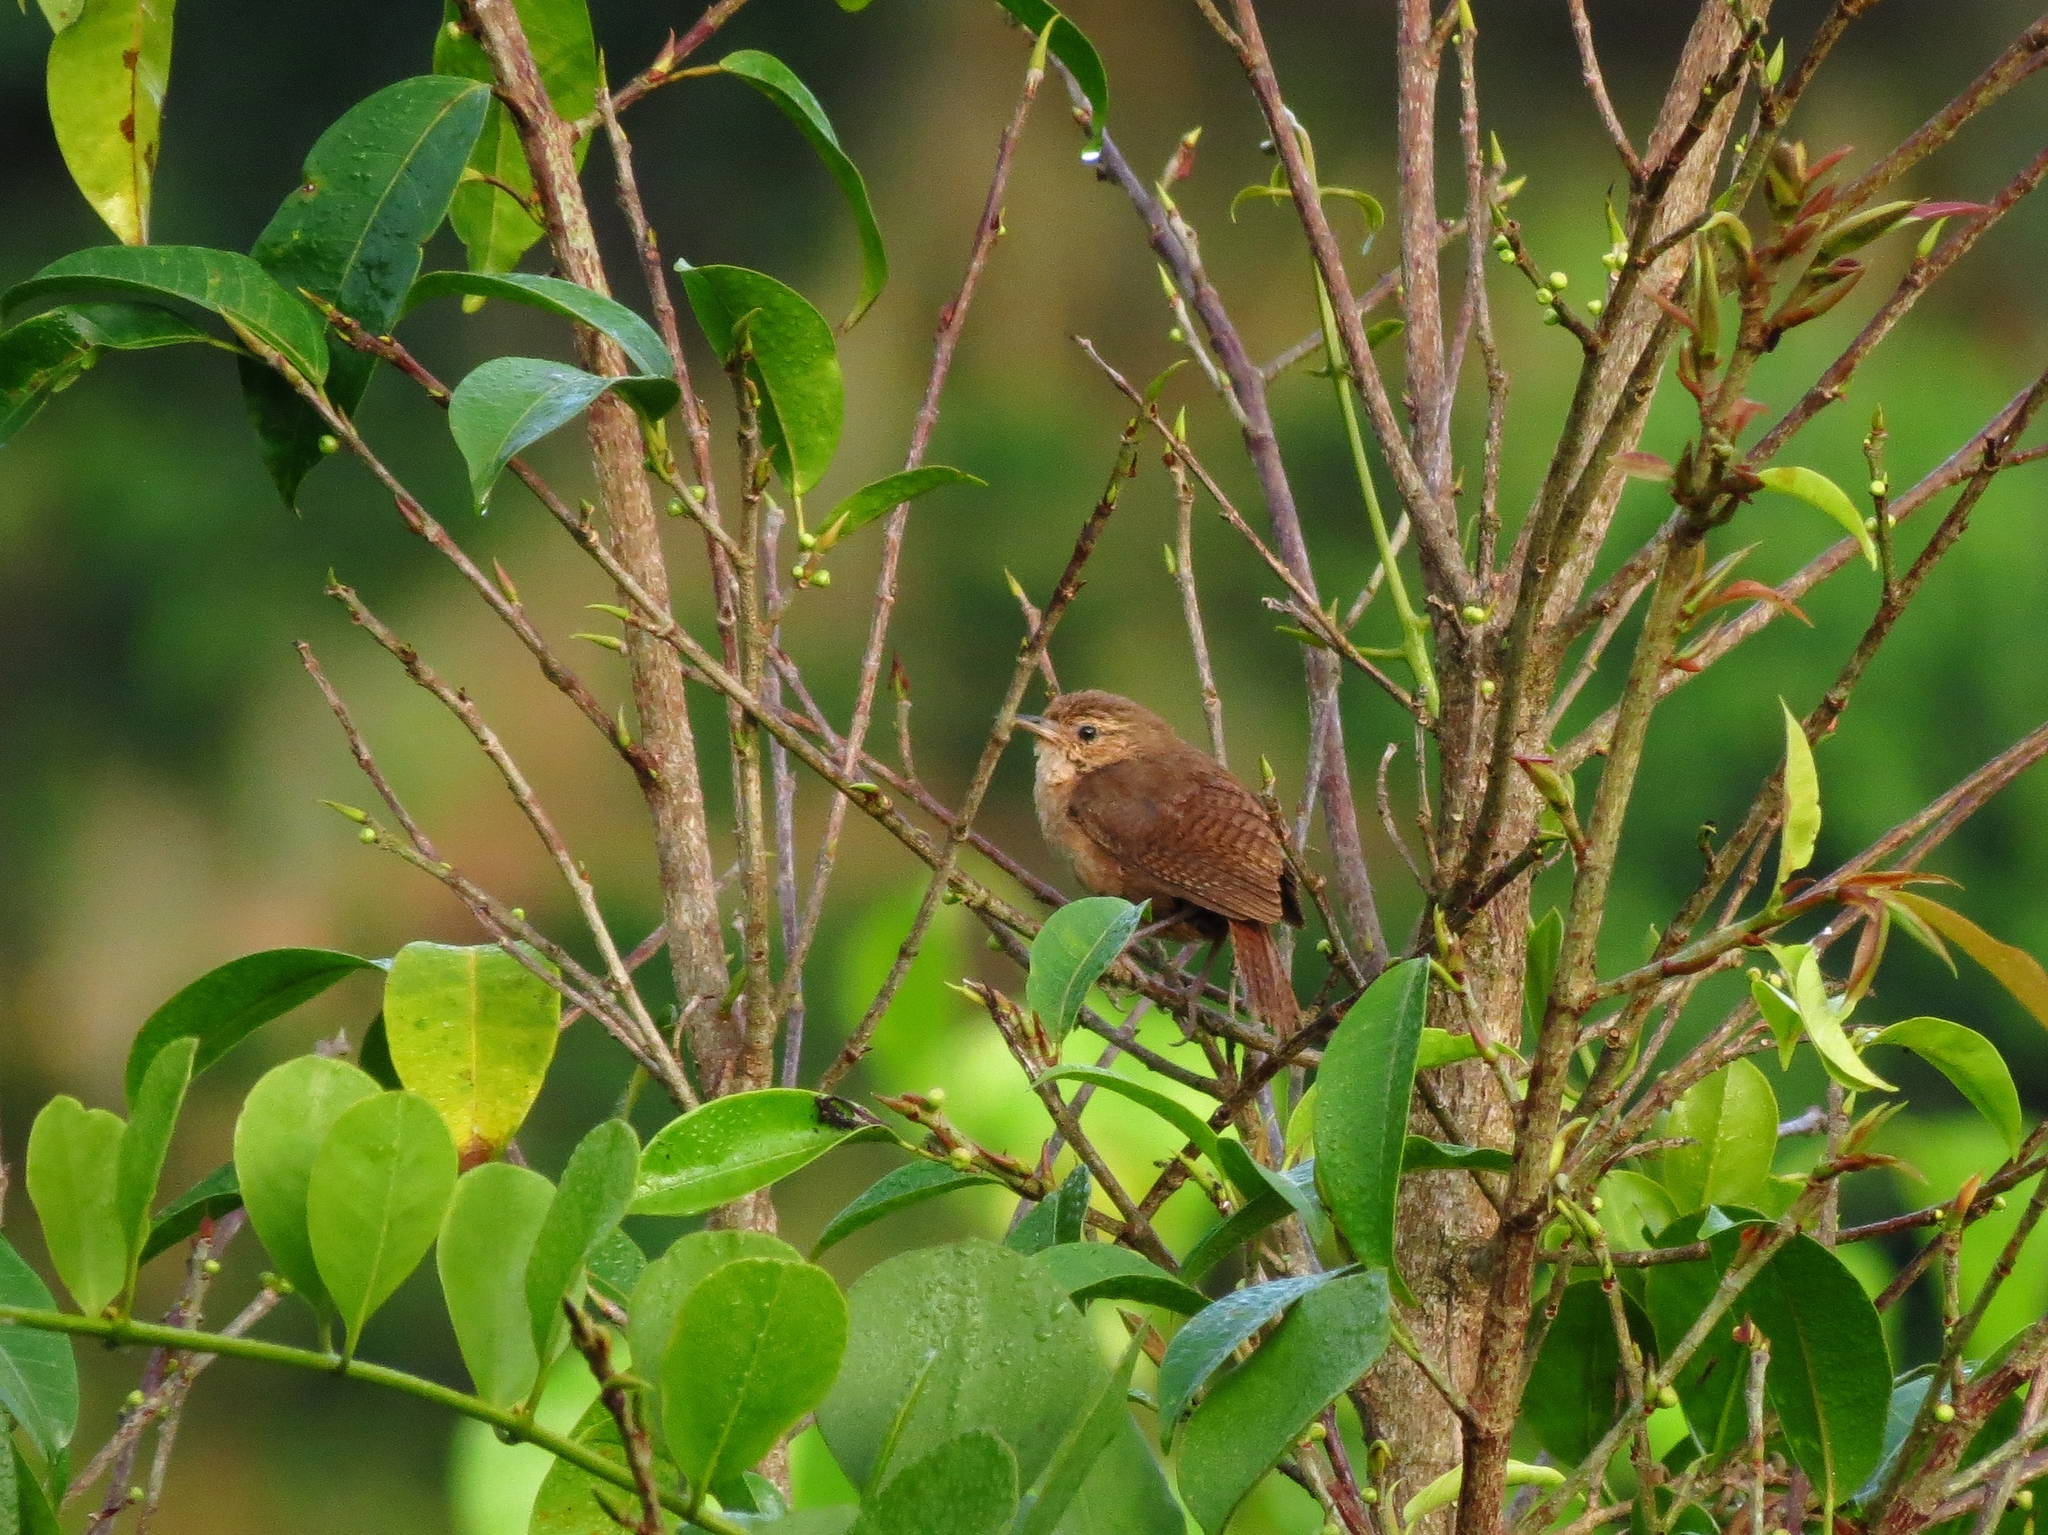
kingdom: Animalia
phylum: Chordata
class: Aves
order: Passeriformes
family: Troglodytidae
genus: Troglodytes
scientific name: Troglodytes aedon
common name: House wren
